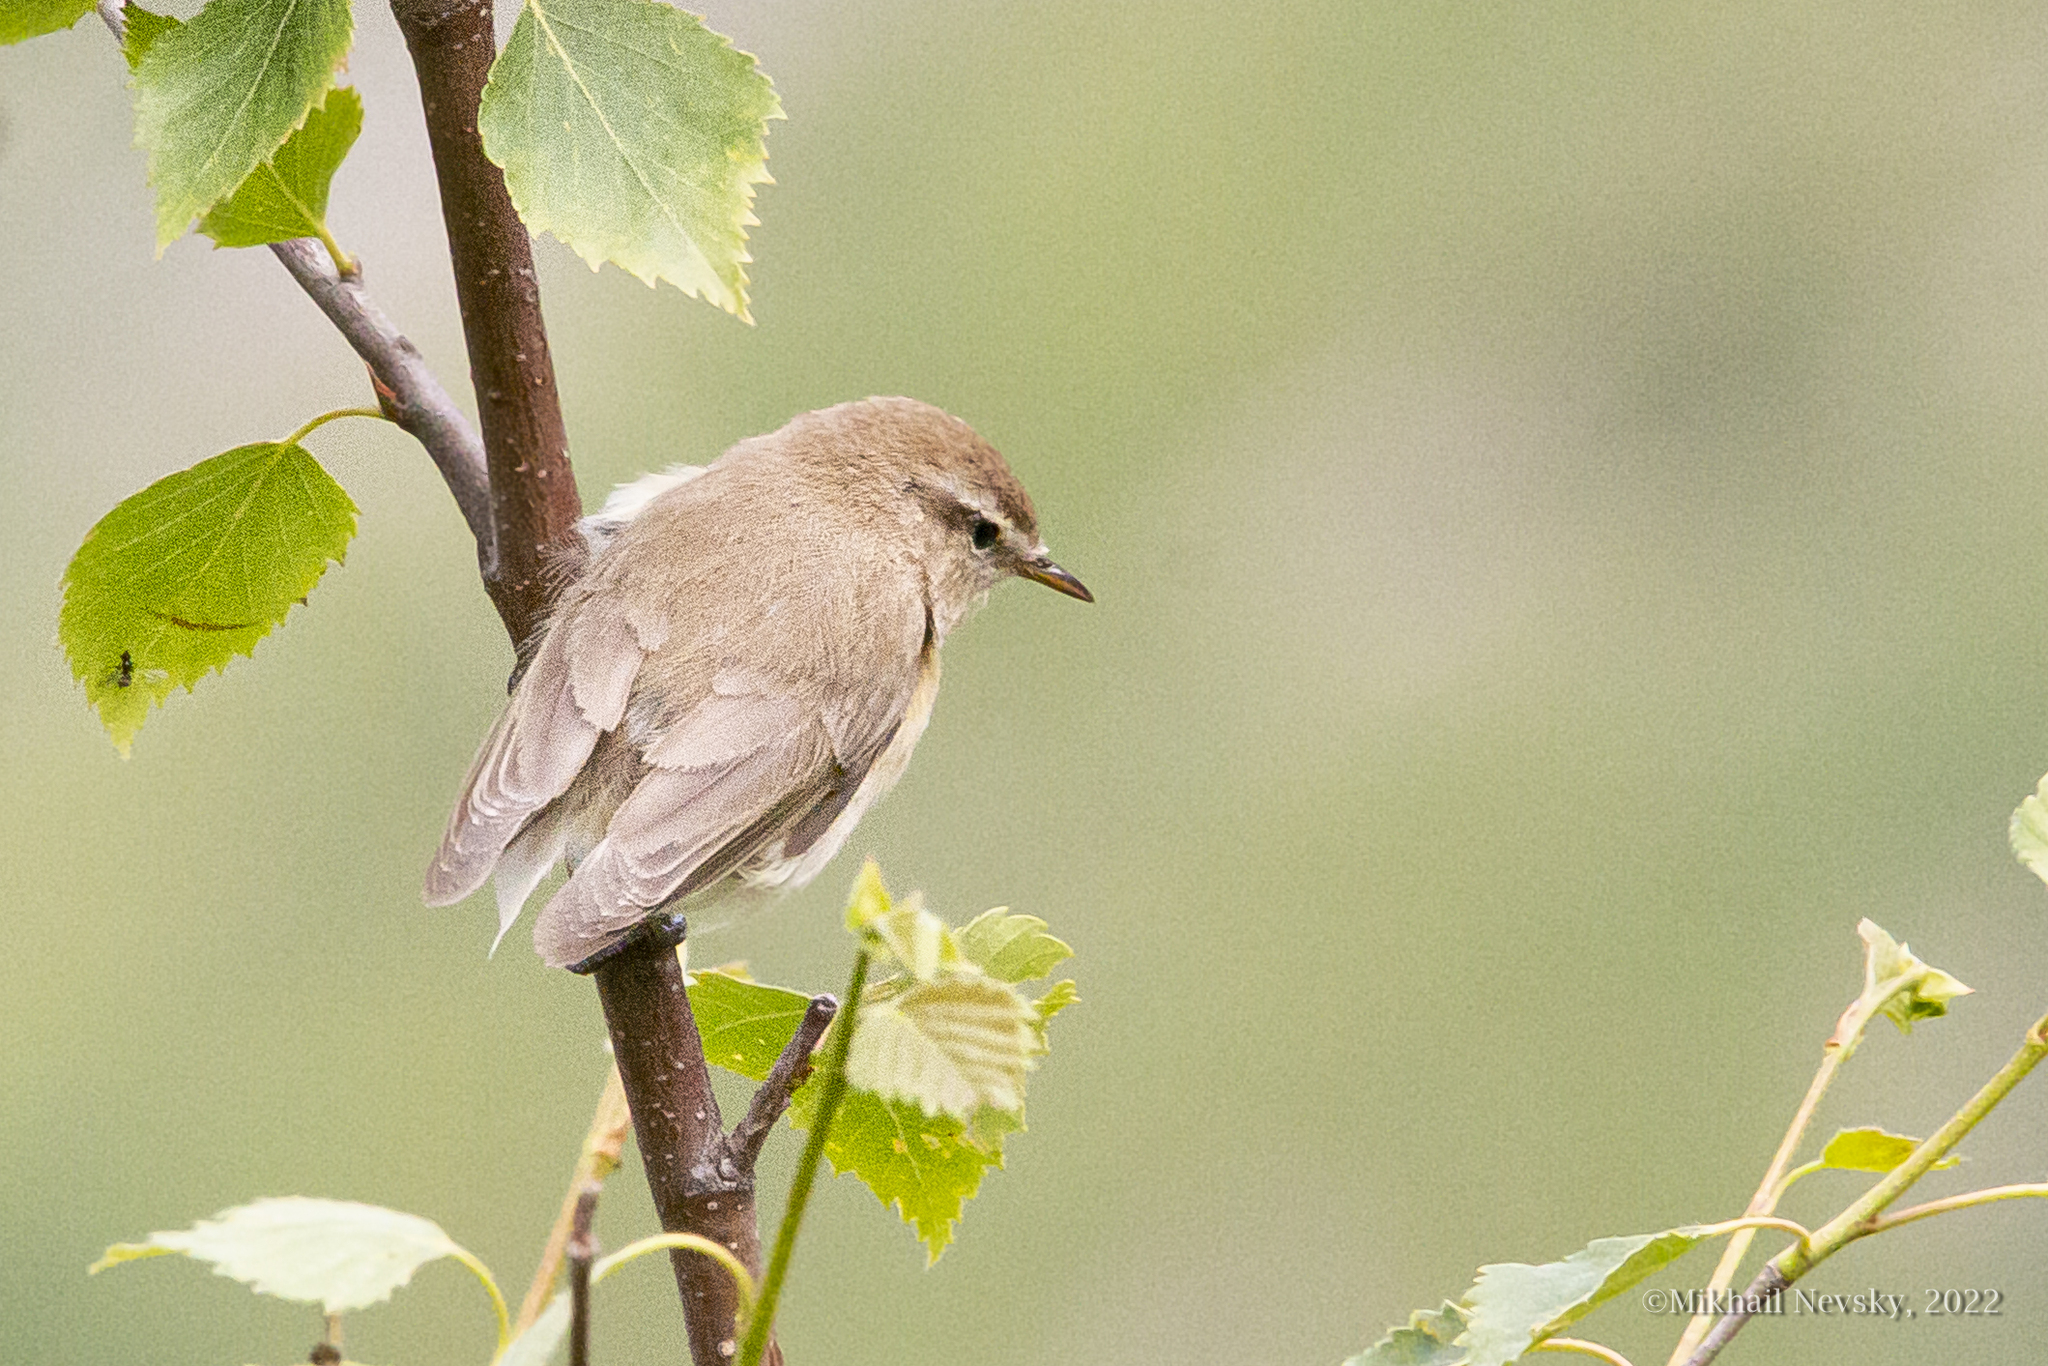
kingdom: Animalia
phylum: Chordata
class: Aves
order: Passeriformes
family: Phylloscopidae
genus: Phylloscopus
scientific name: Phylloscopus sindianus
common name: Mountain chiffchaff
